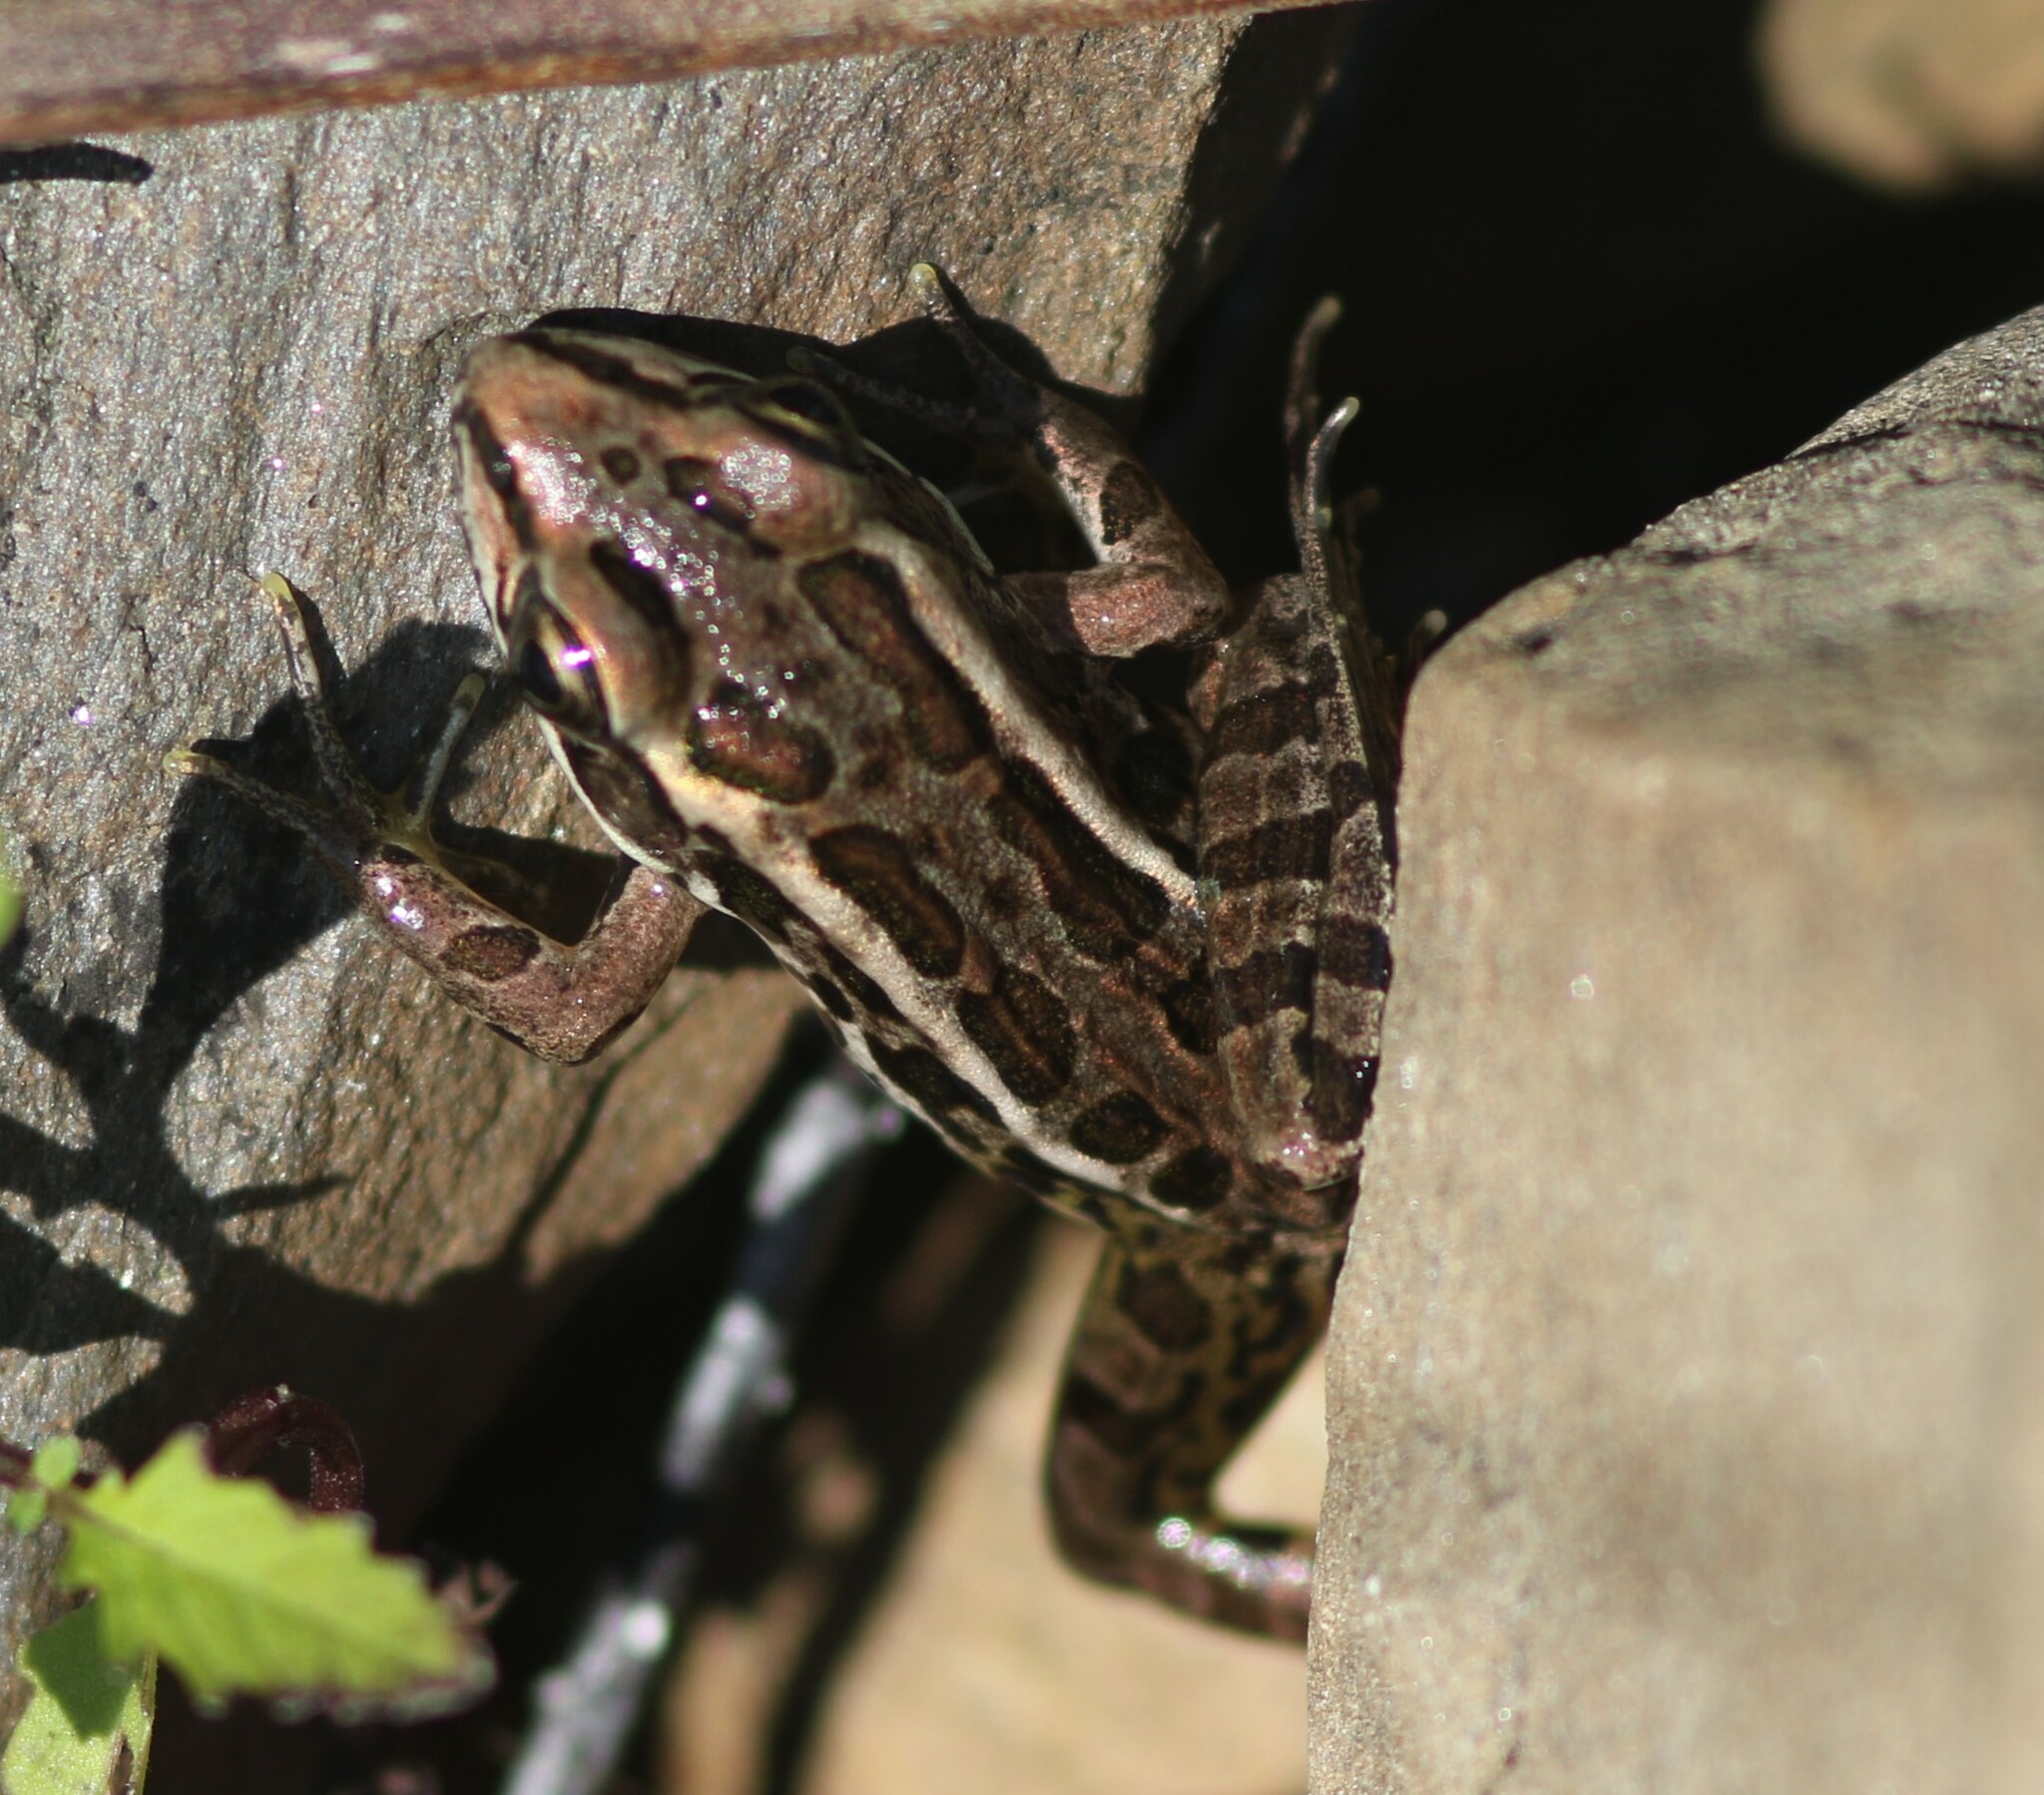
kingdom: Animalia
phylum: Chordata
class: Amphibia
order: Anura
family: Ranidae
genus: Lithobates
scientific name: Lithobates palustris
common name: Pickerel frog
